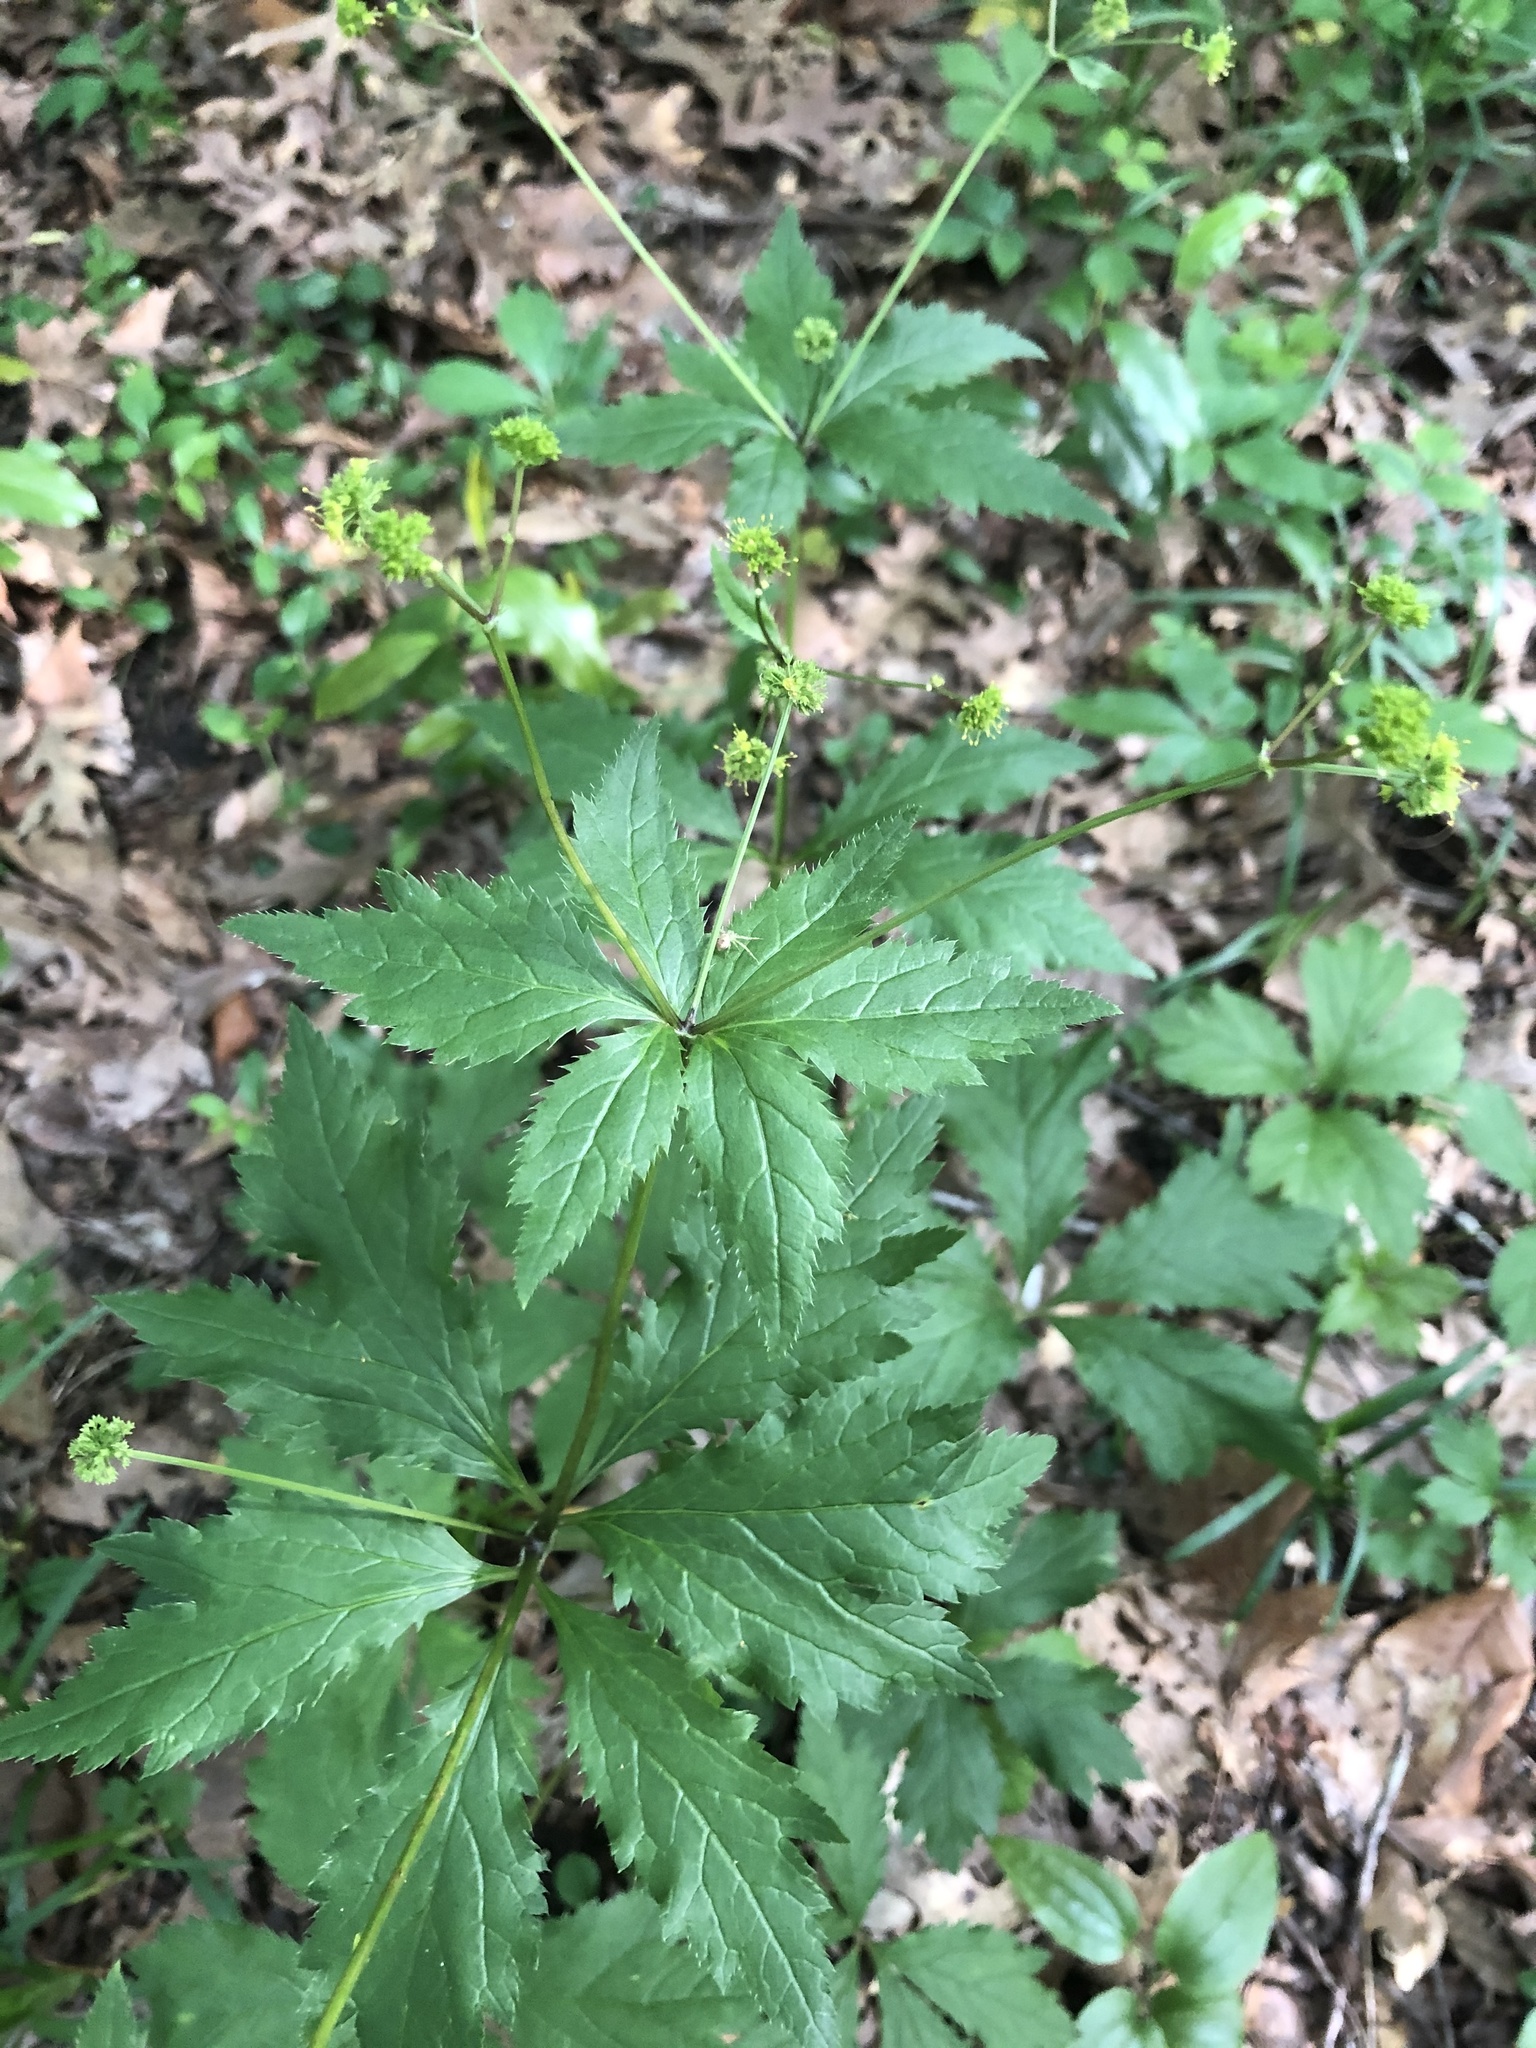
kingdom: Plantae
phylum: Tracheophyta
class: Magnoliopsida
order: Apiales
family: Apiaceae
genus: Sanicula
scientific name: Sanicula odorata
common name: Cluster sanicle
